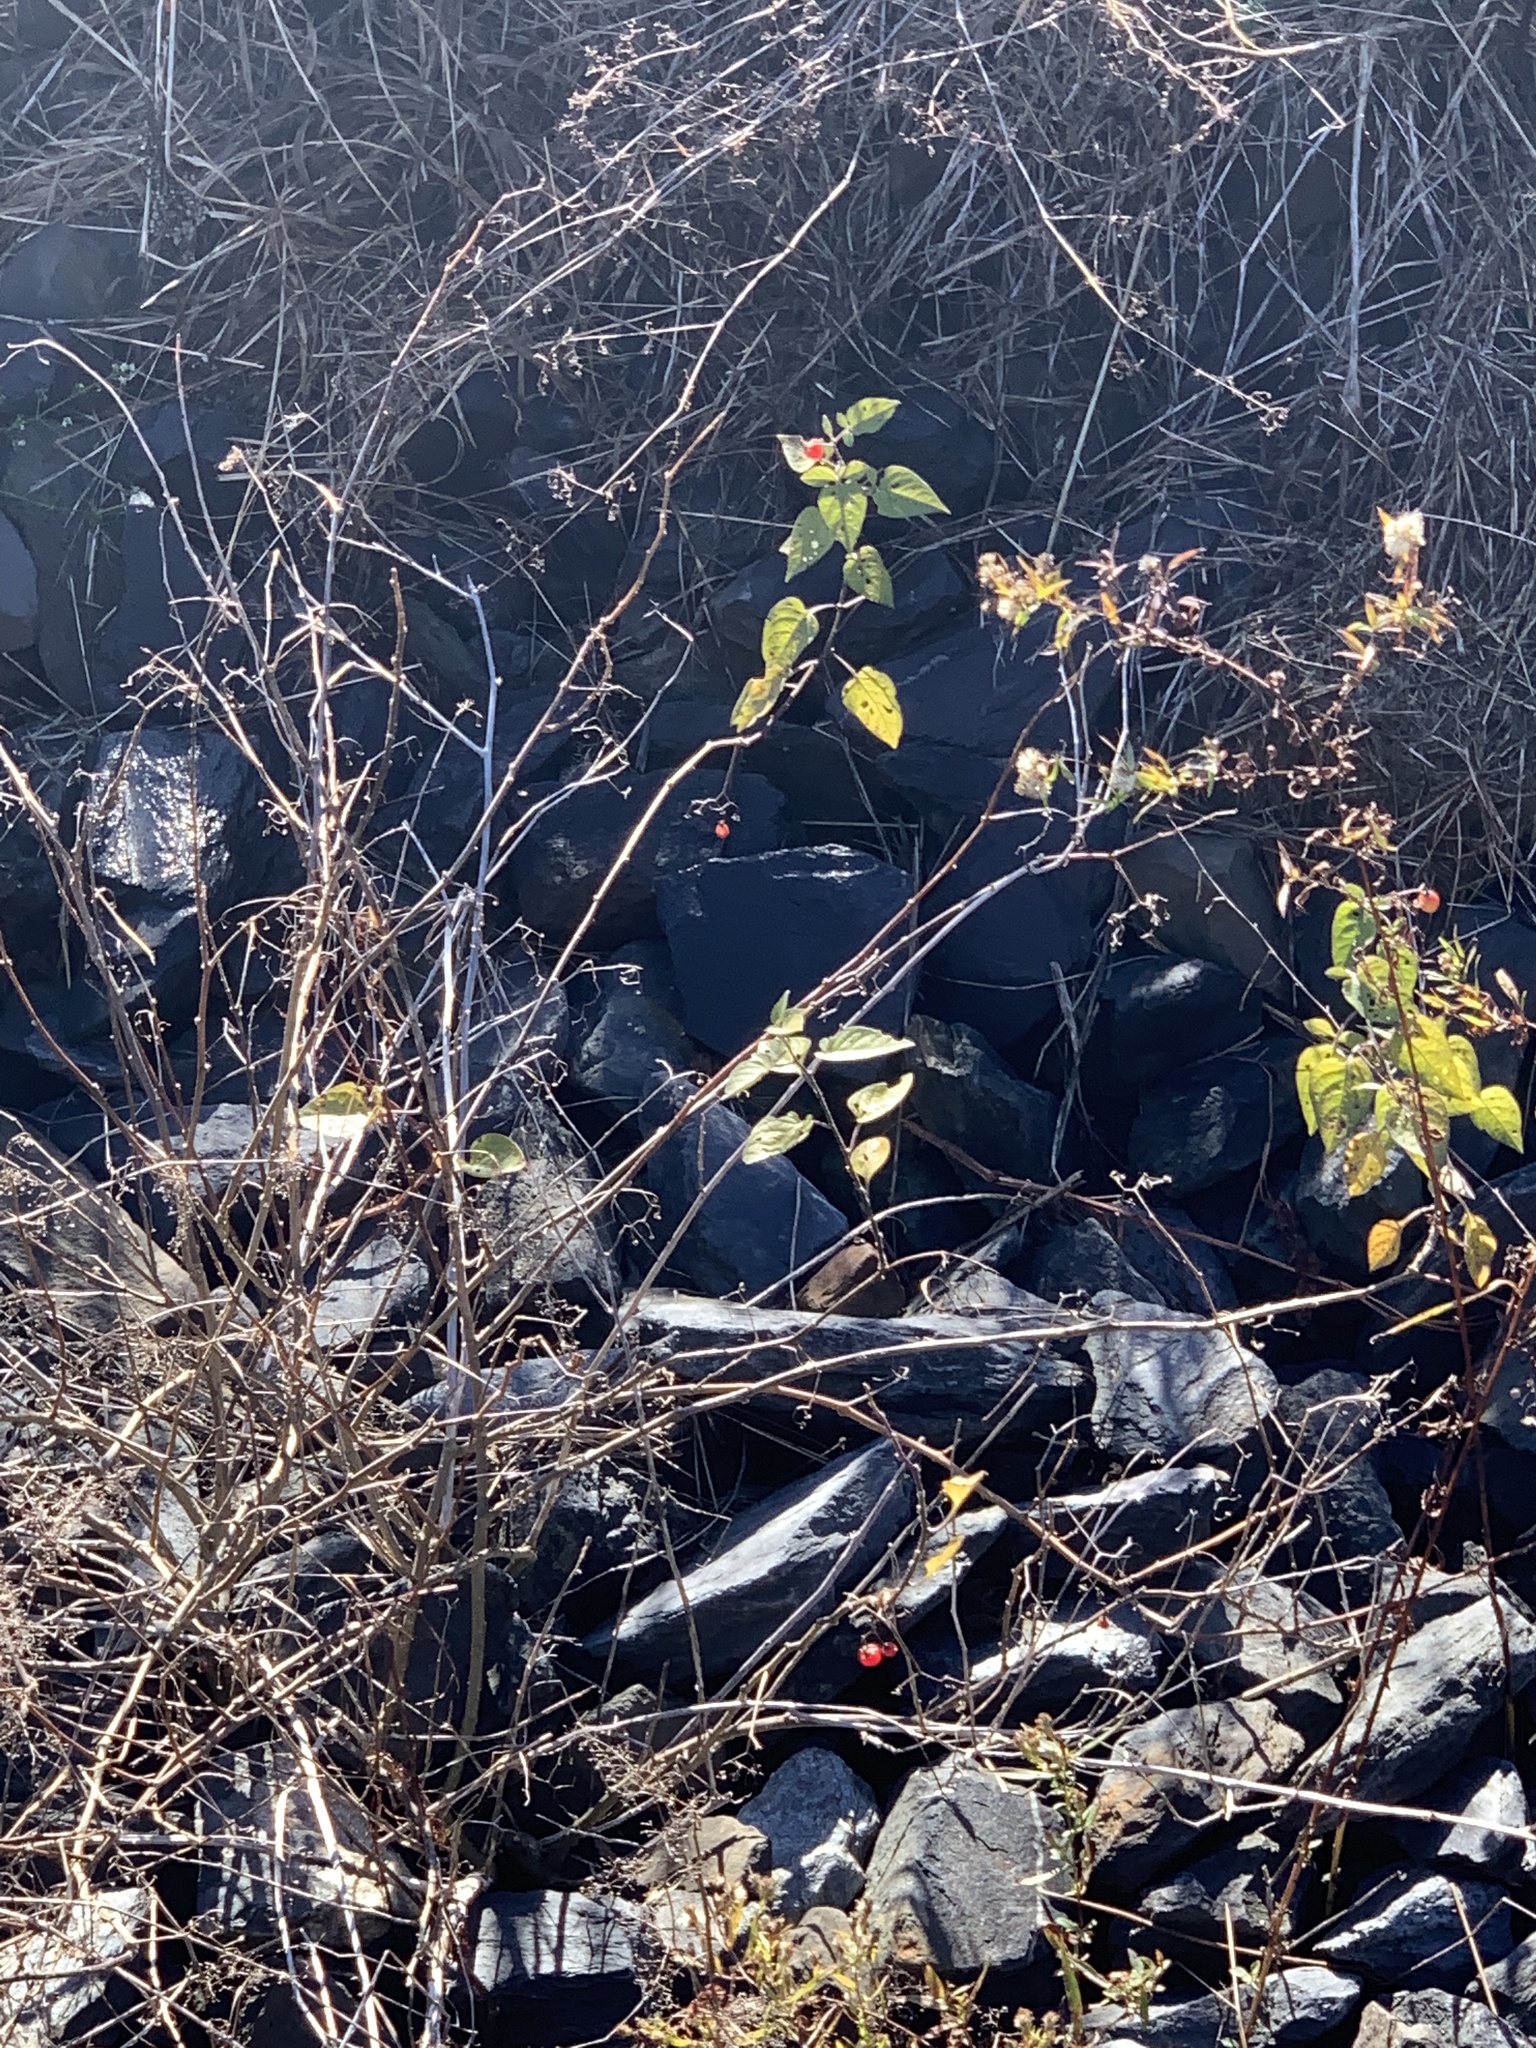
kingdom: Plantae
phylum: Tracheophyta
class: Magnoliopsida
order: Solanales
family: Solanaceae
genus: Solanum
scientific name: Solanum dulcamara
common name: Climbing nightshade
